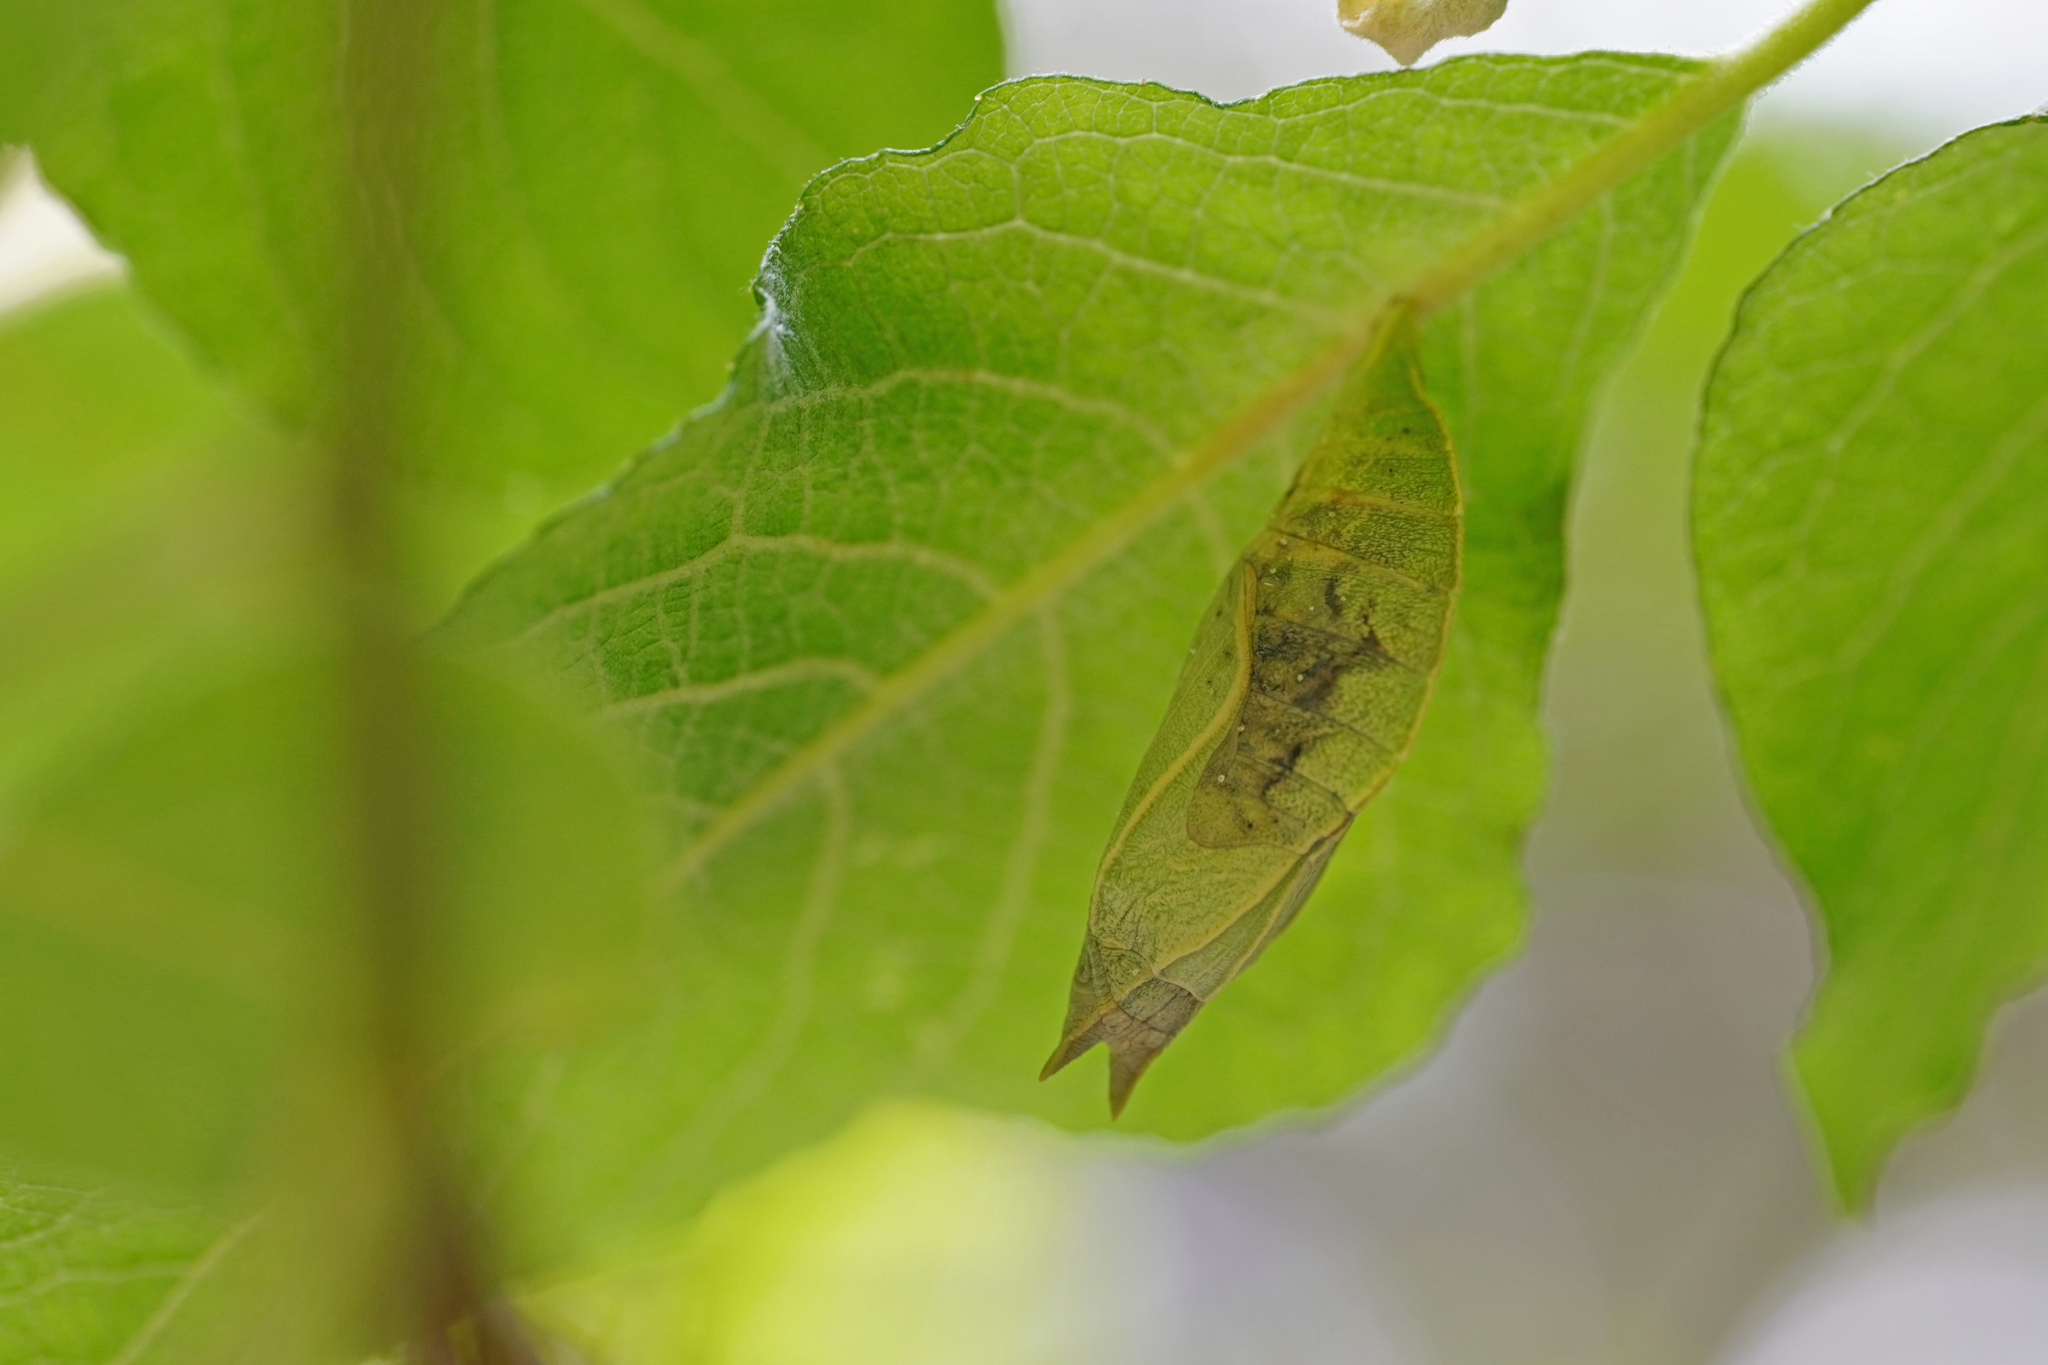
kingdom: Animalia
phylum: Arthropoda
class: Insecta
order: Lepidoptera
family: Nymphalidae
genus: Apatura
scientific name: Apatura iris
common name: Purple emperor
